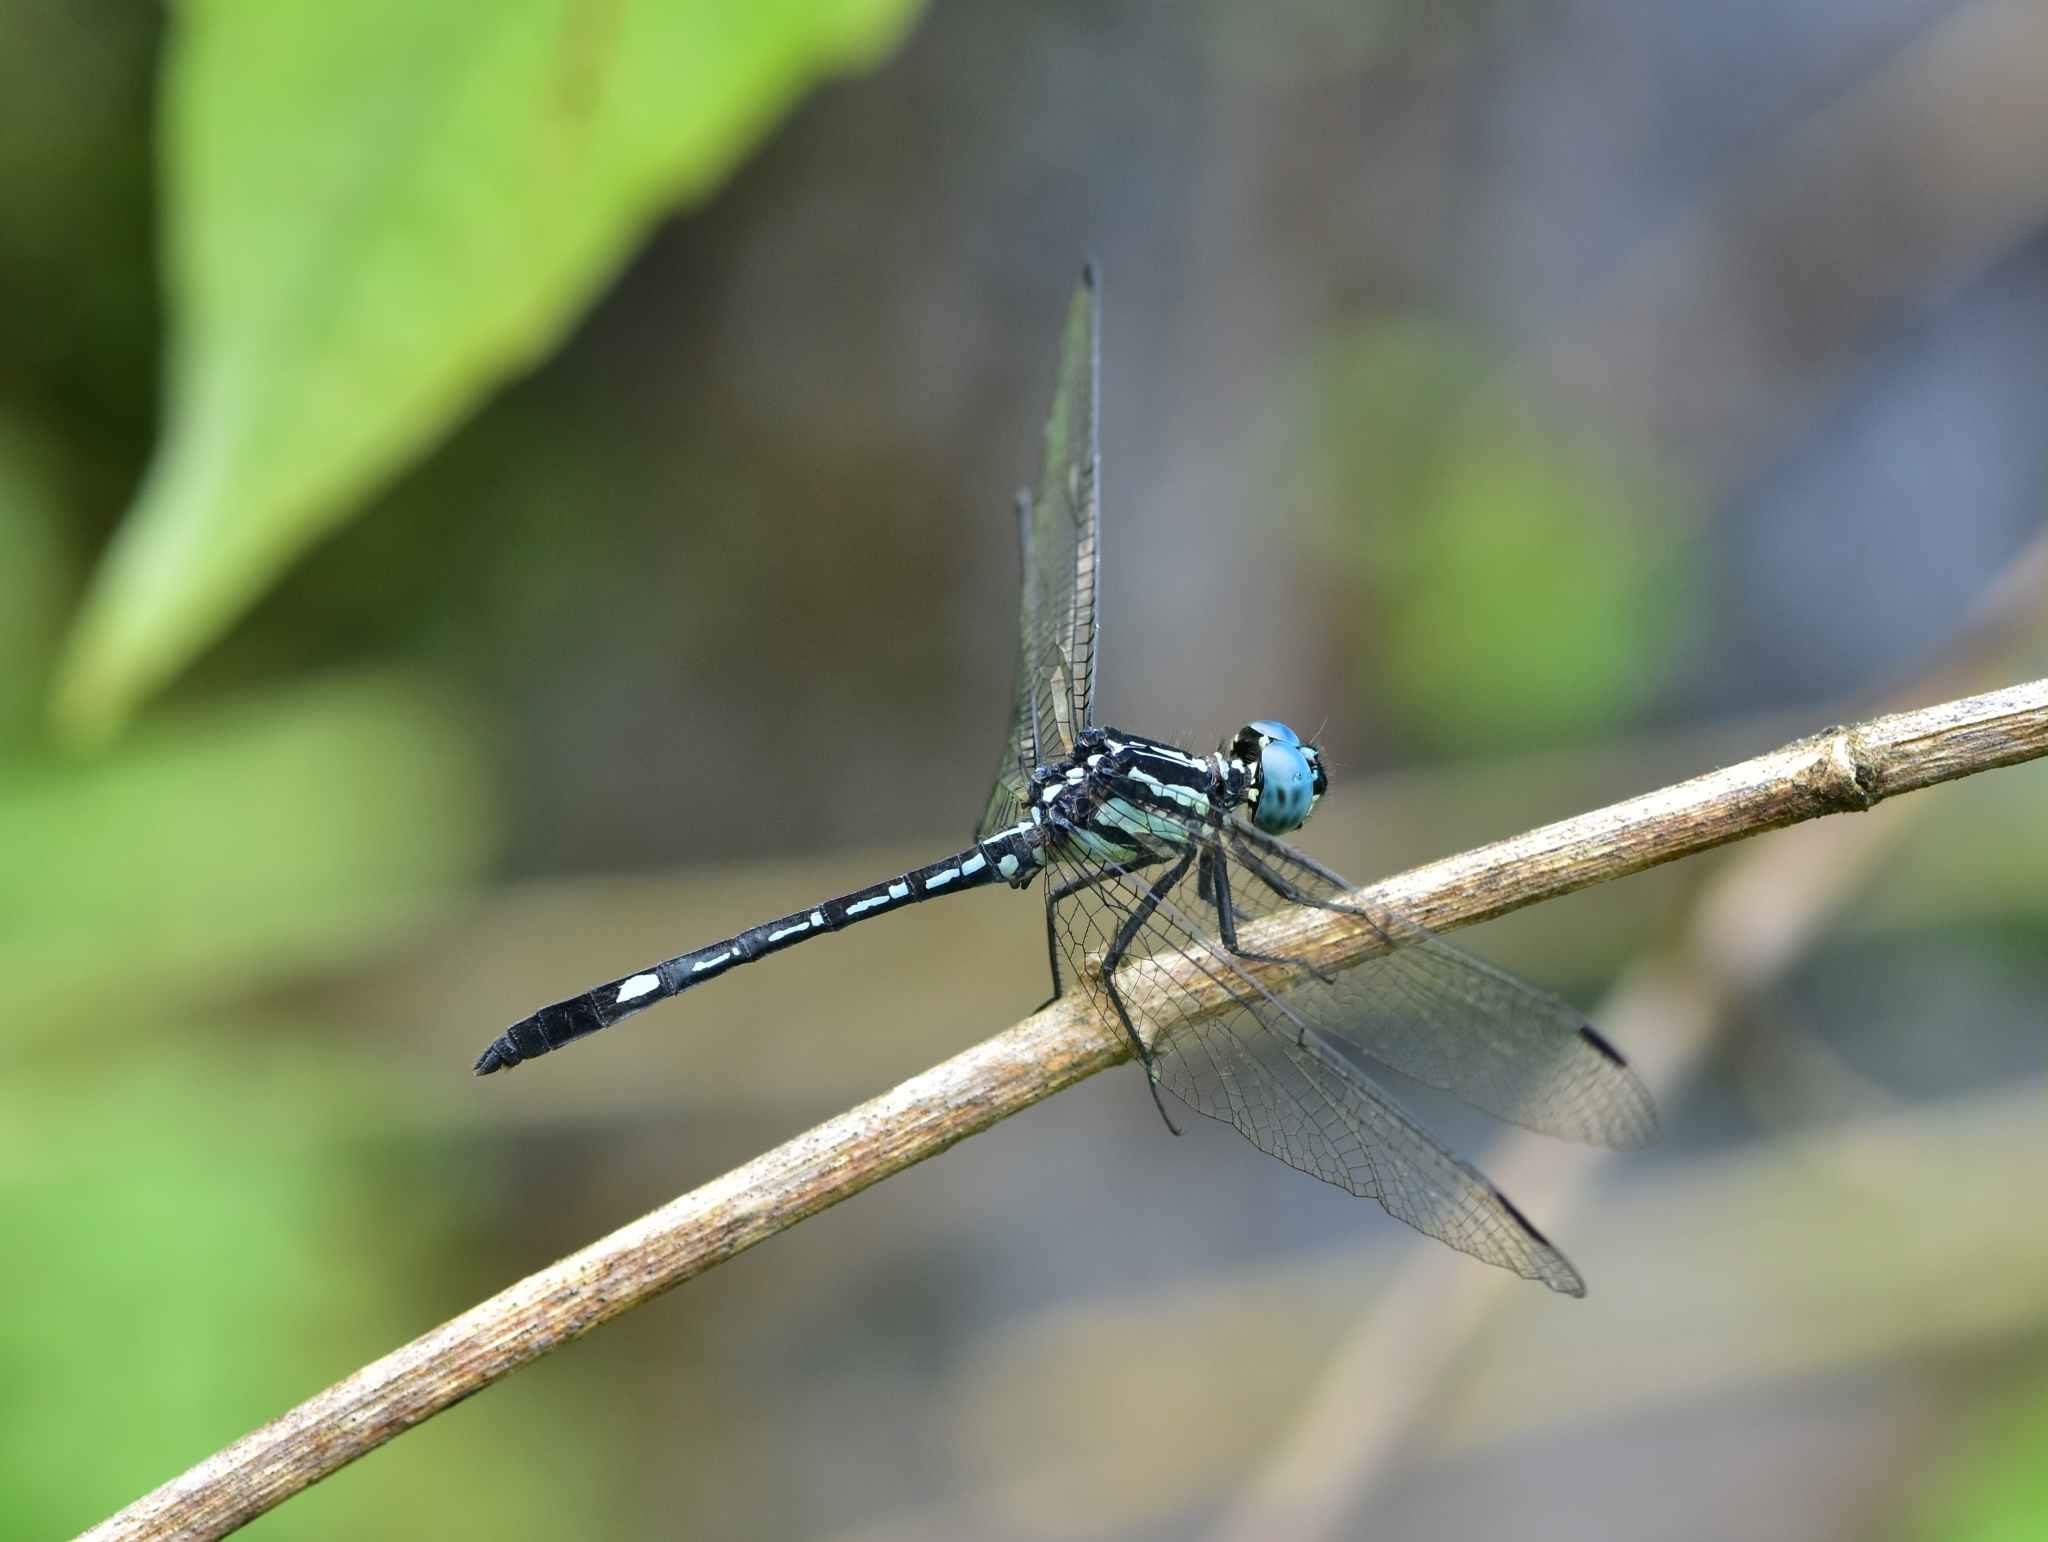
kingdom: Animalia
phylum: Arthropoda
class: Insecta
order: Odonata
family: Libellulidae
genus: Hylaeothemis
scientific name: Hylaeothemis apicalis
